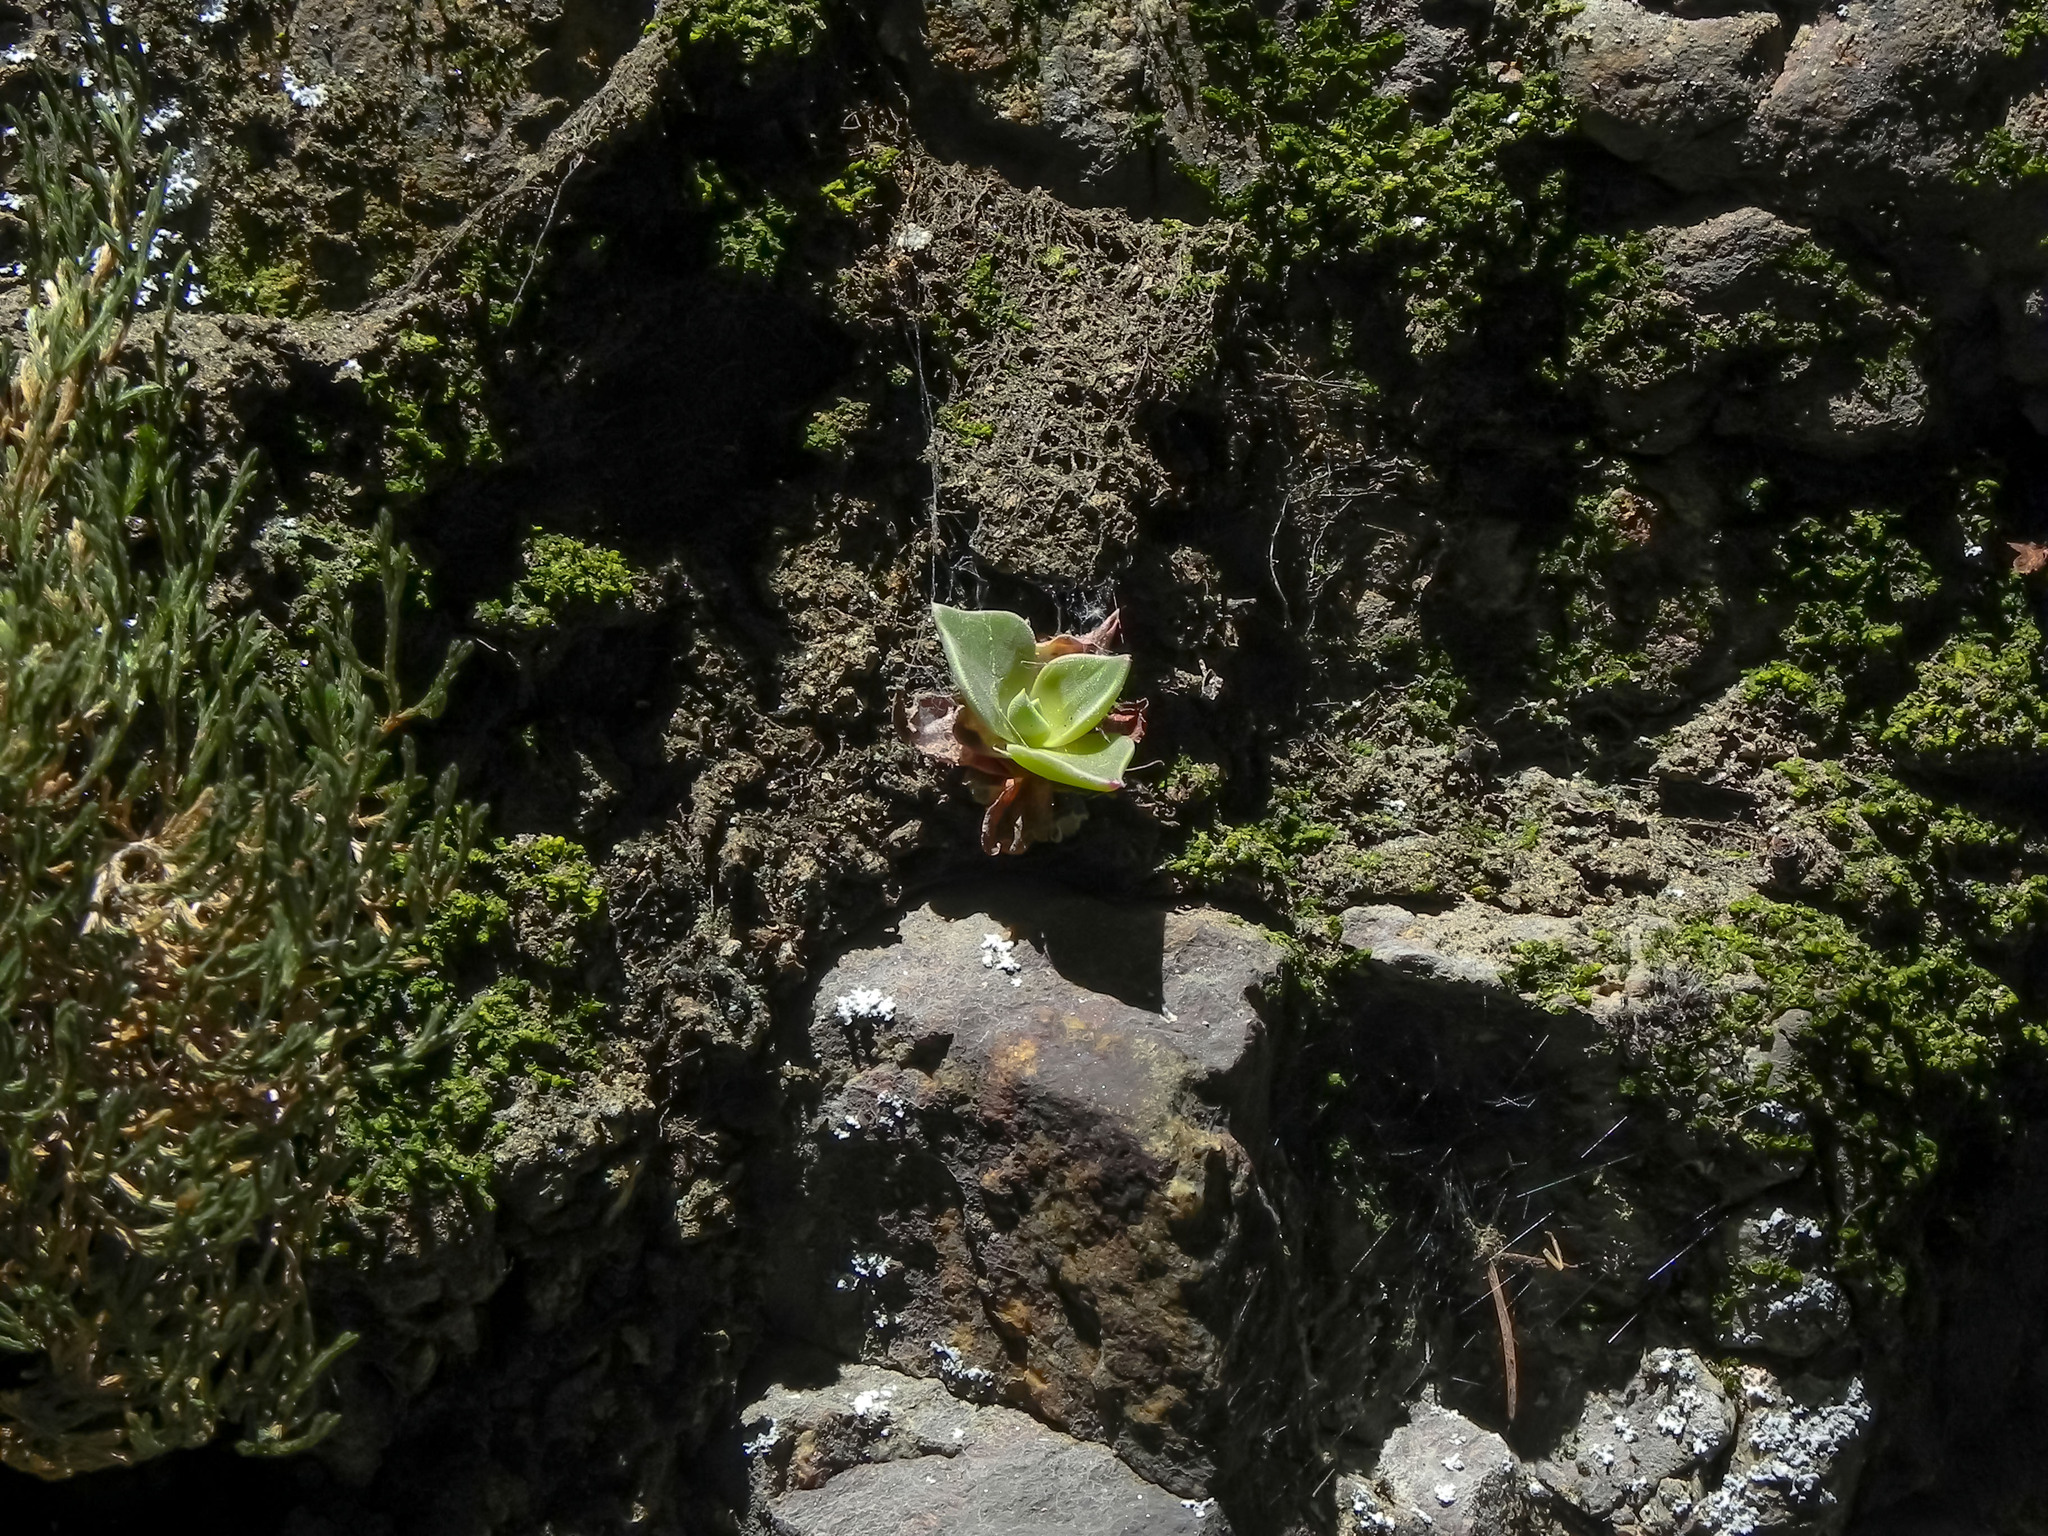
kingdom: Plantae
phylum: Tracheophyta
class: Magnoliopsida
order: Saxifragales
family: Crassulaceae
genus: Dudleya
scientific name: Dudleya cymosa
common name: Canyon dudleya
